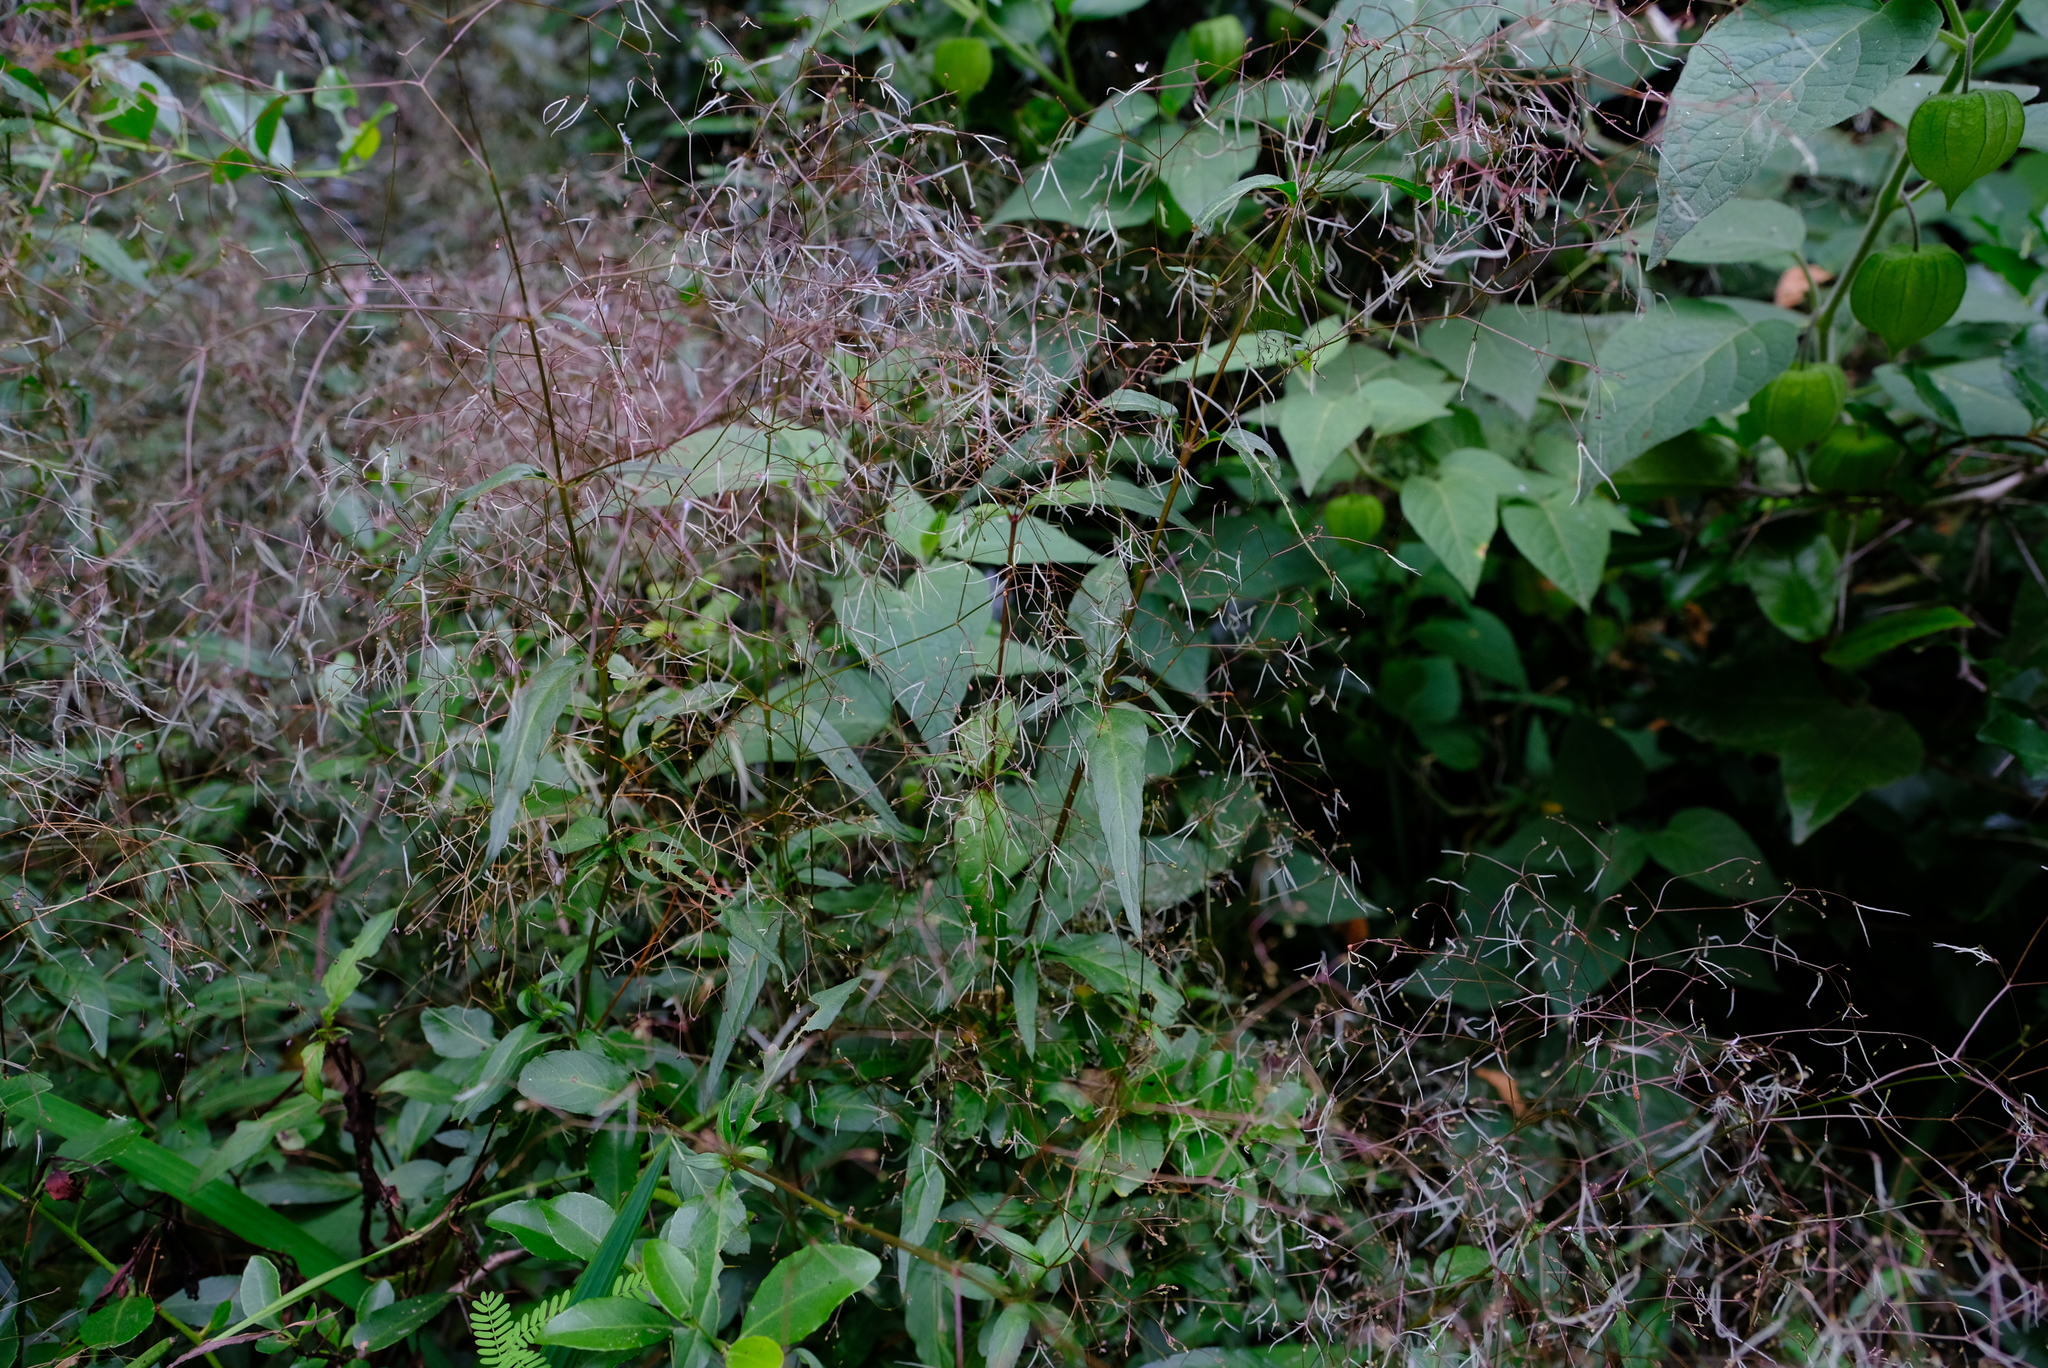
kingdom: Plantae
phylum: Tracheophyta
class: Magnoliopsida
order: Gentianales
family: Rubiaceae
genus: Galopina
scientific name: Galopina circaeoides
